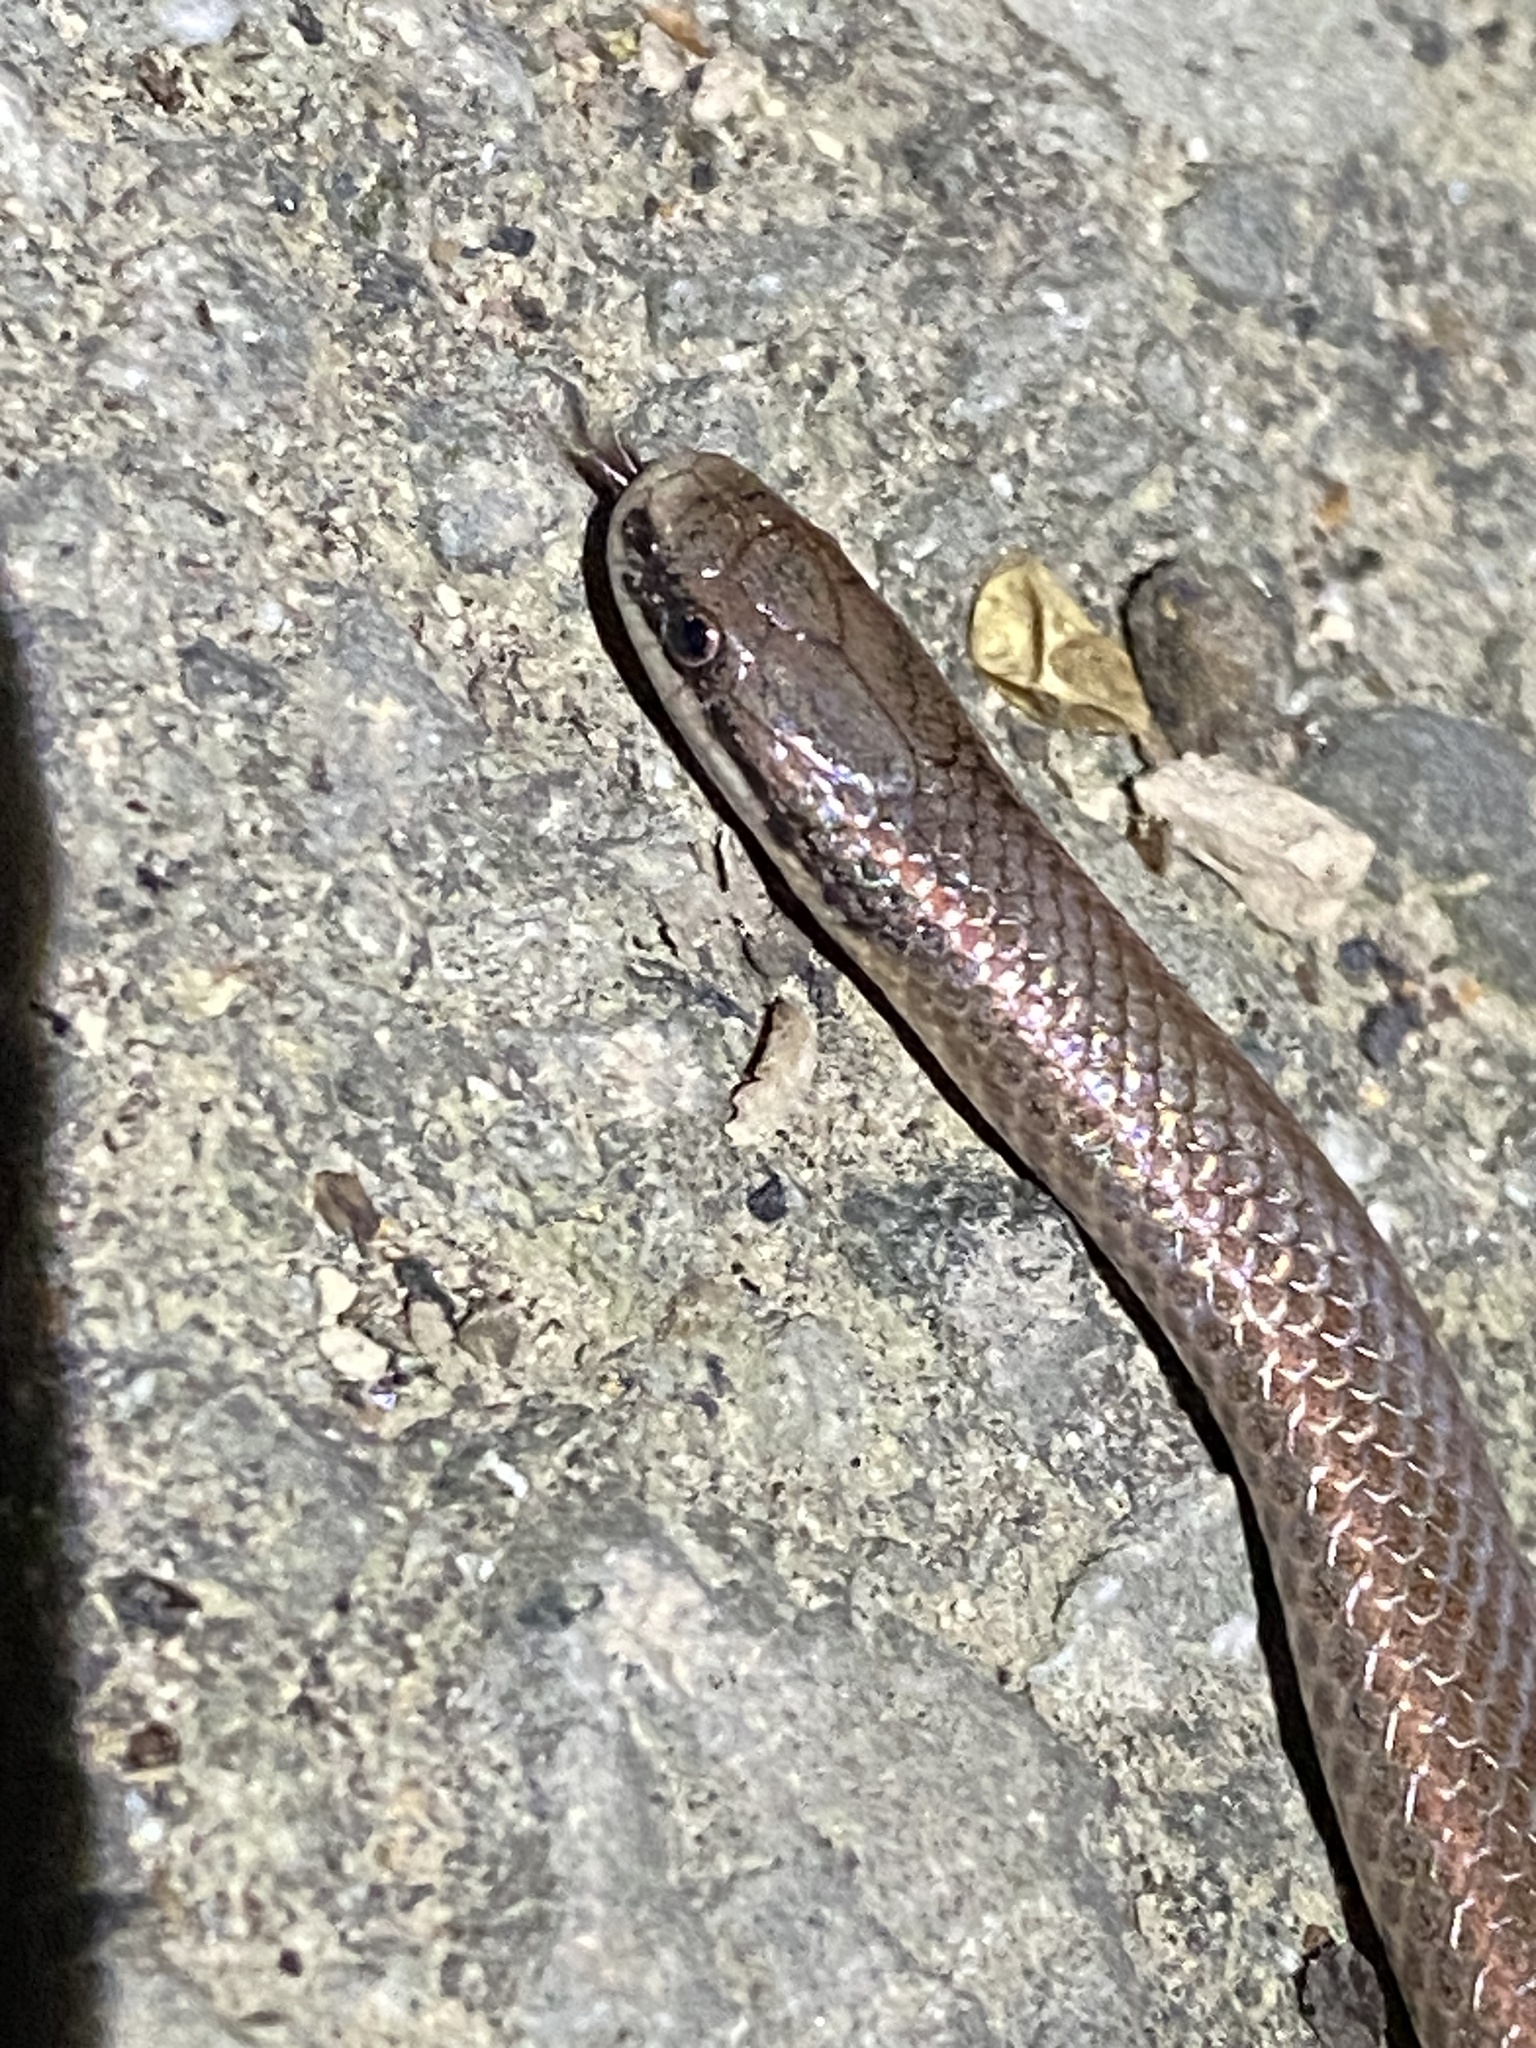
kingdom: Animalia
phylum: Chordata
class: Squamata
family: Colubridae
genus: Contia
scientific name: Contia tenuis
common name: Sharptail snake
